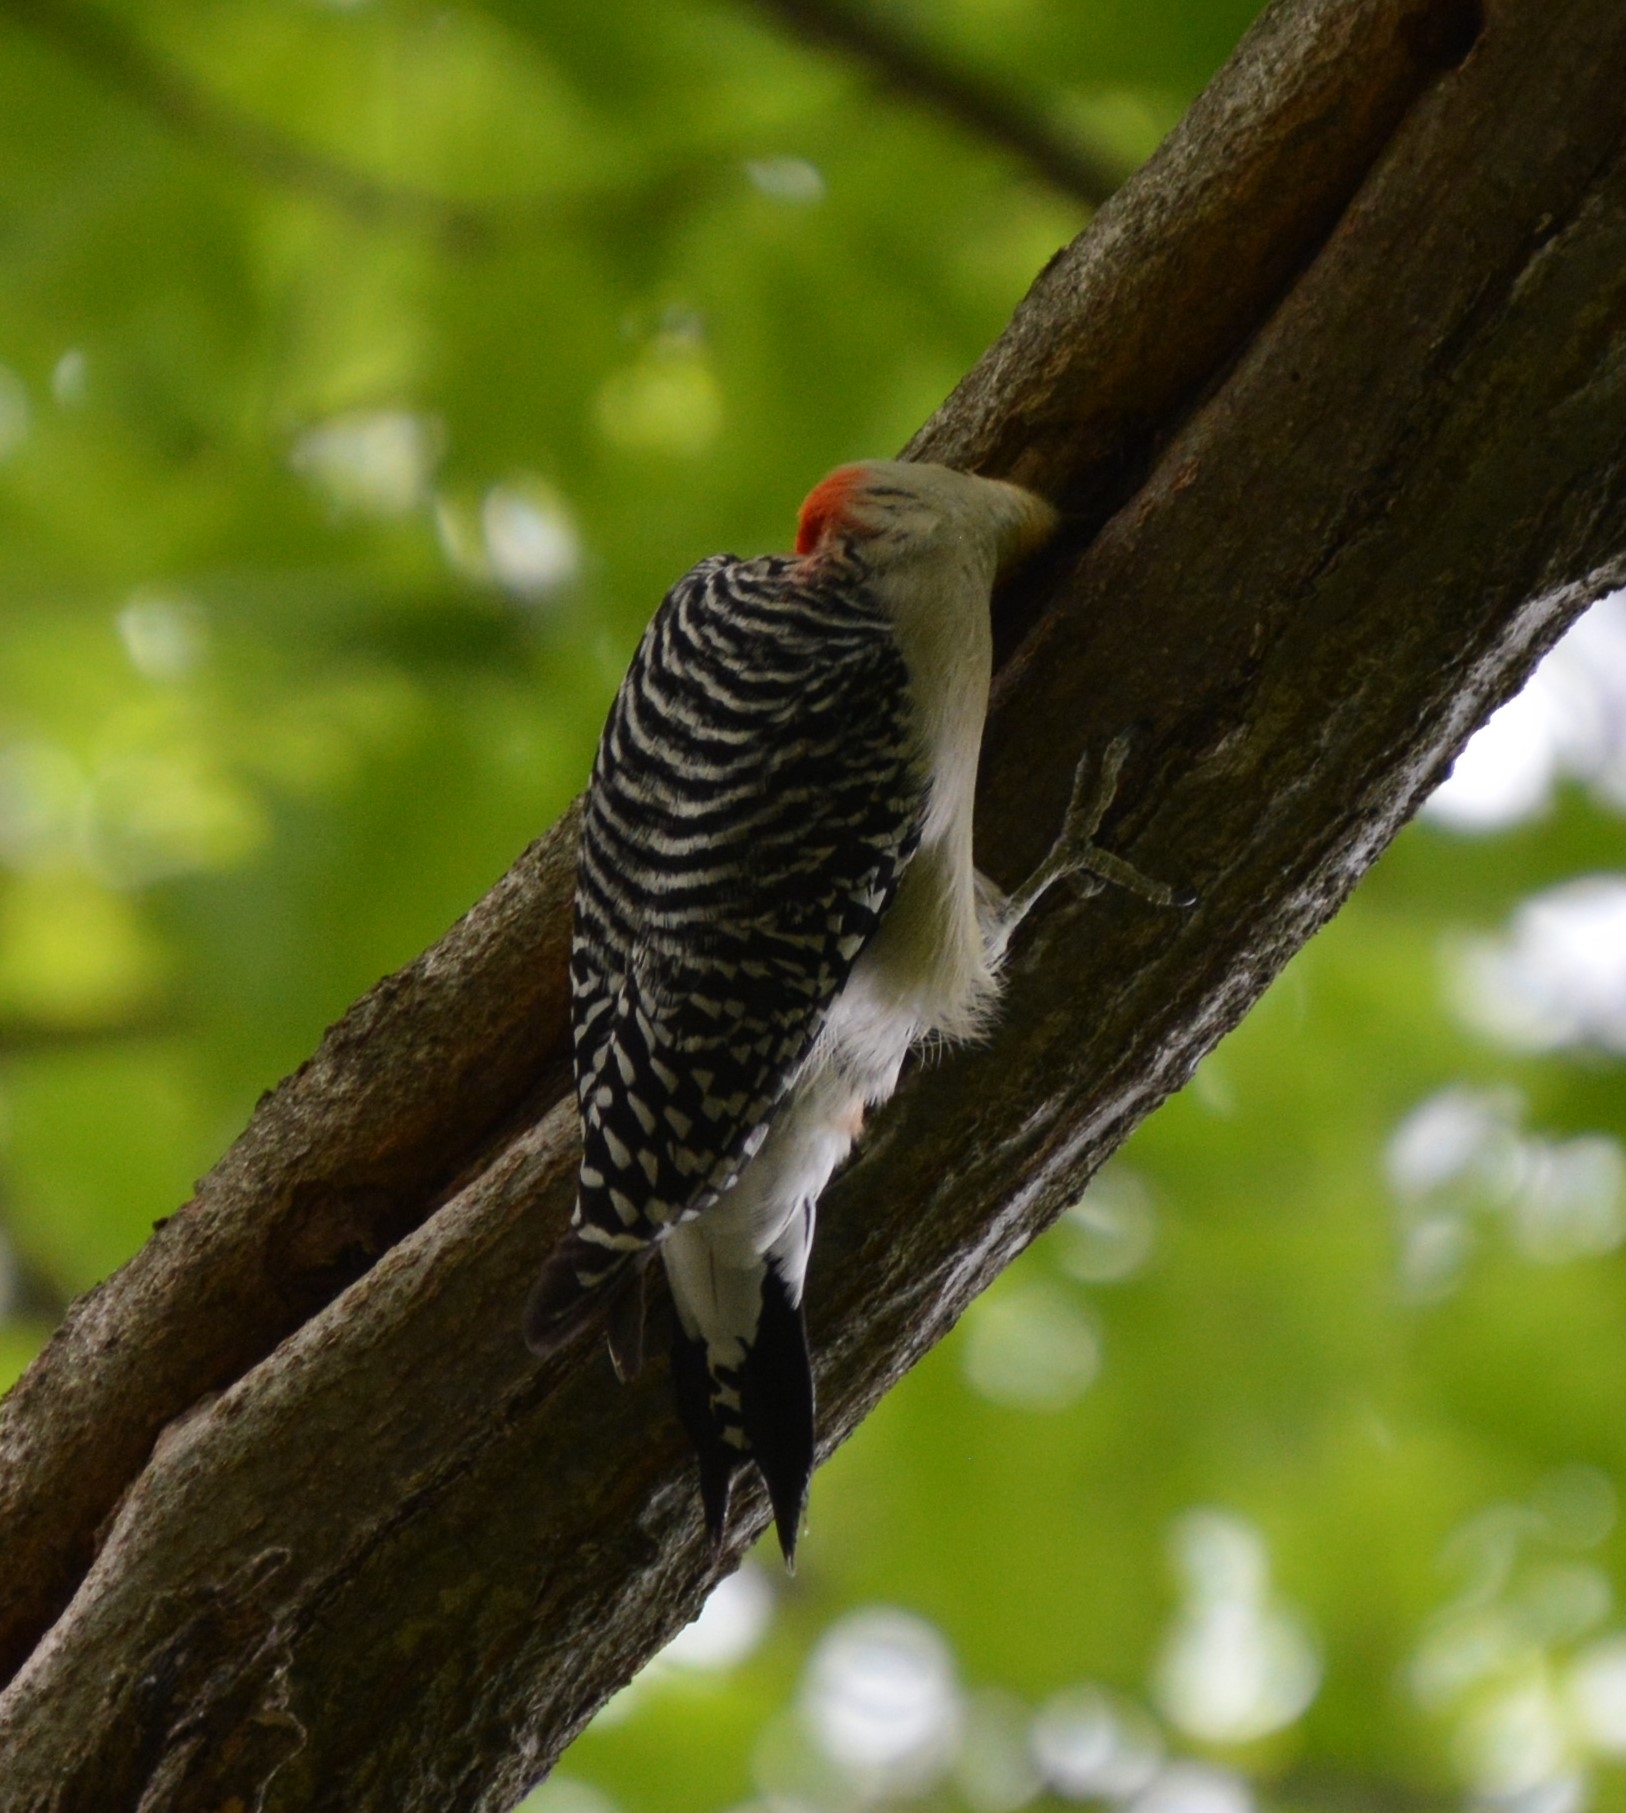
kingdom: Animalia
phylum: Chordata
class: Aves
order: Piciformes
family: Picidae
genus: Melanerpes
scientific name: Melanerpes carolinus
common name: Red-bellied woodpecker
